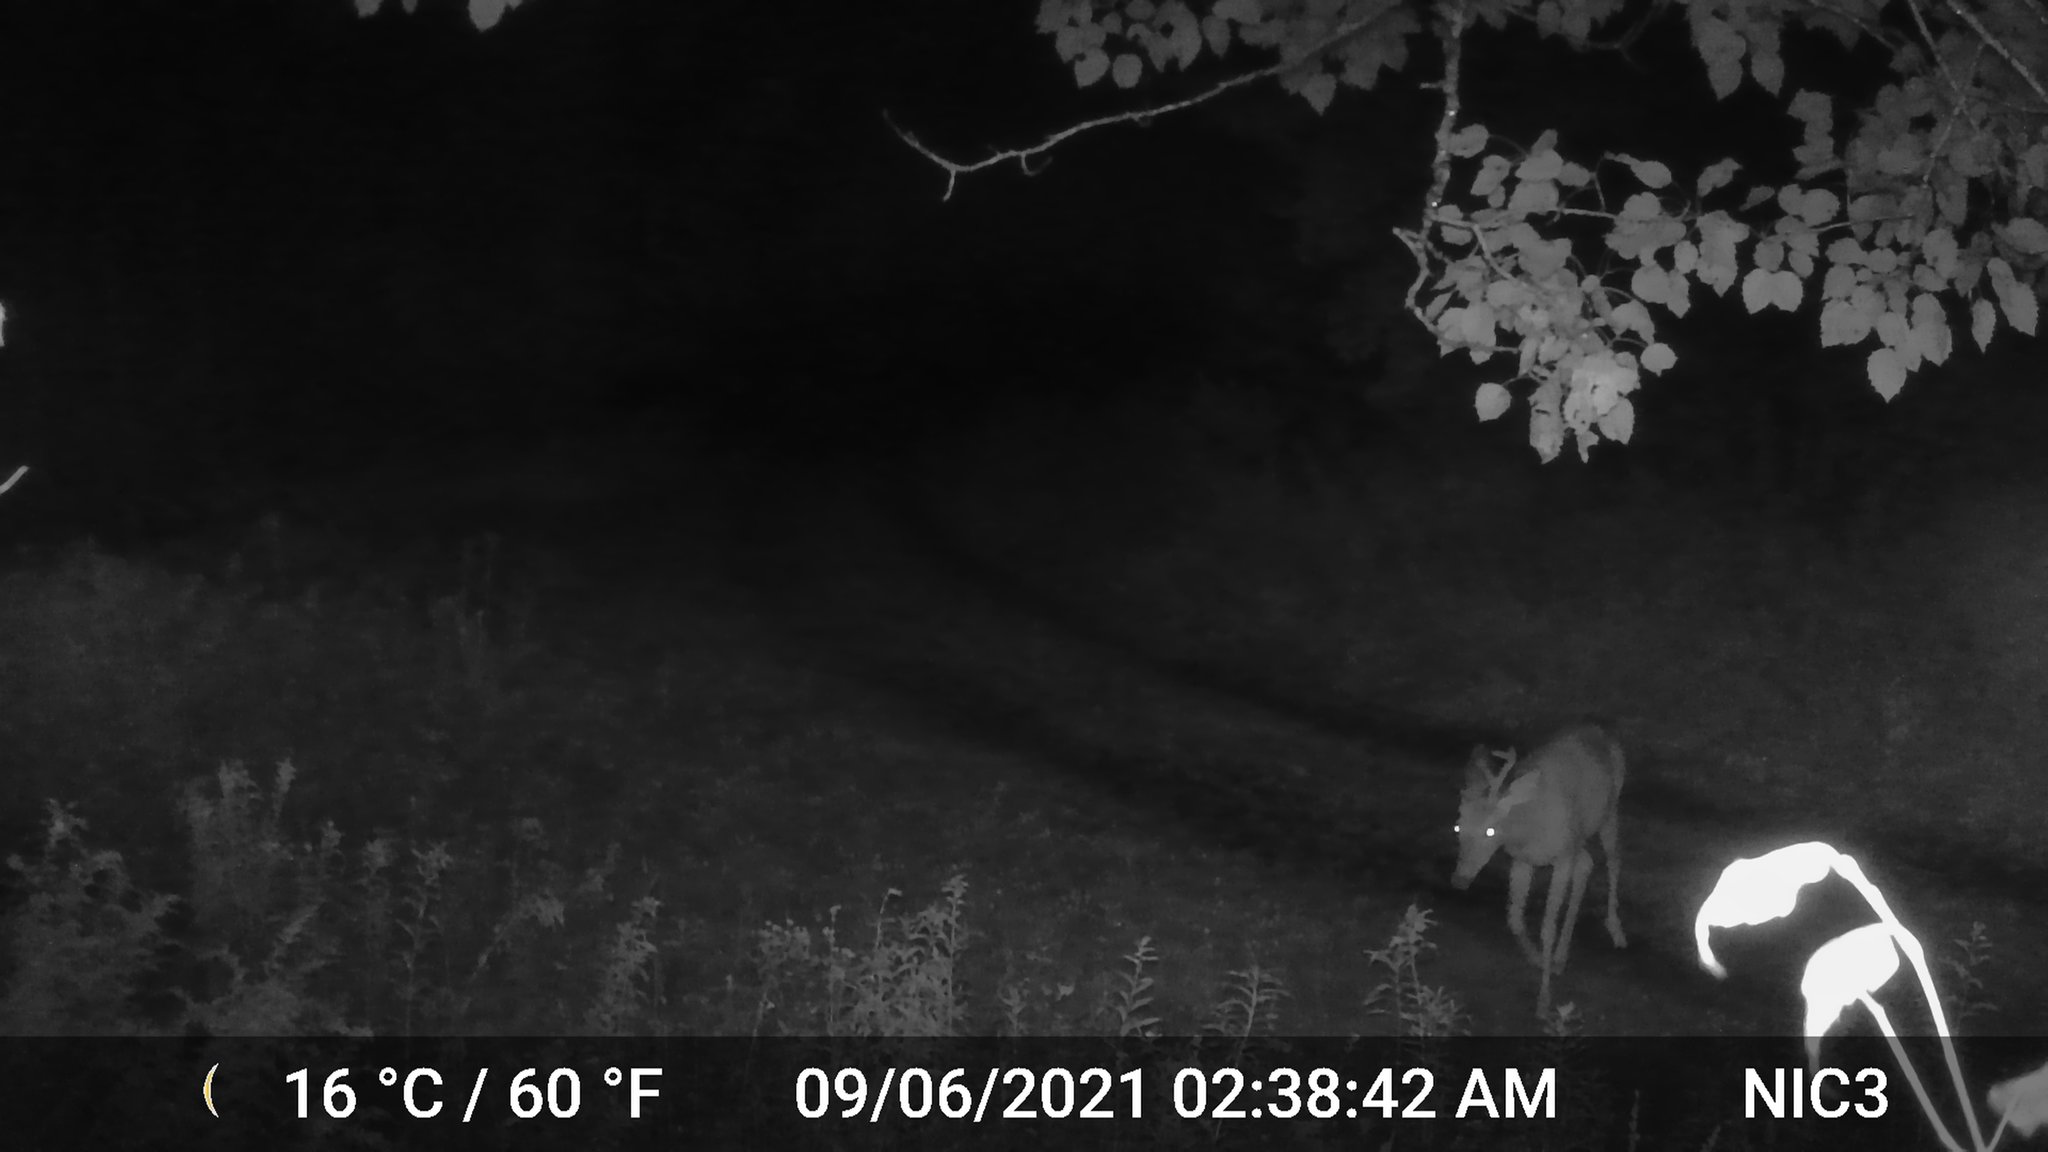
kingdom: Animalia
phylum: Chordata
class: Mammalia
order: Artiodactyla
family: Cervidae
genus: Odocoileus
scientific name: Odocoileus virginianus
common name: White-tailed deer
